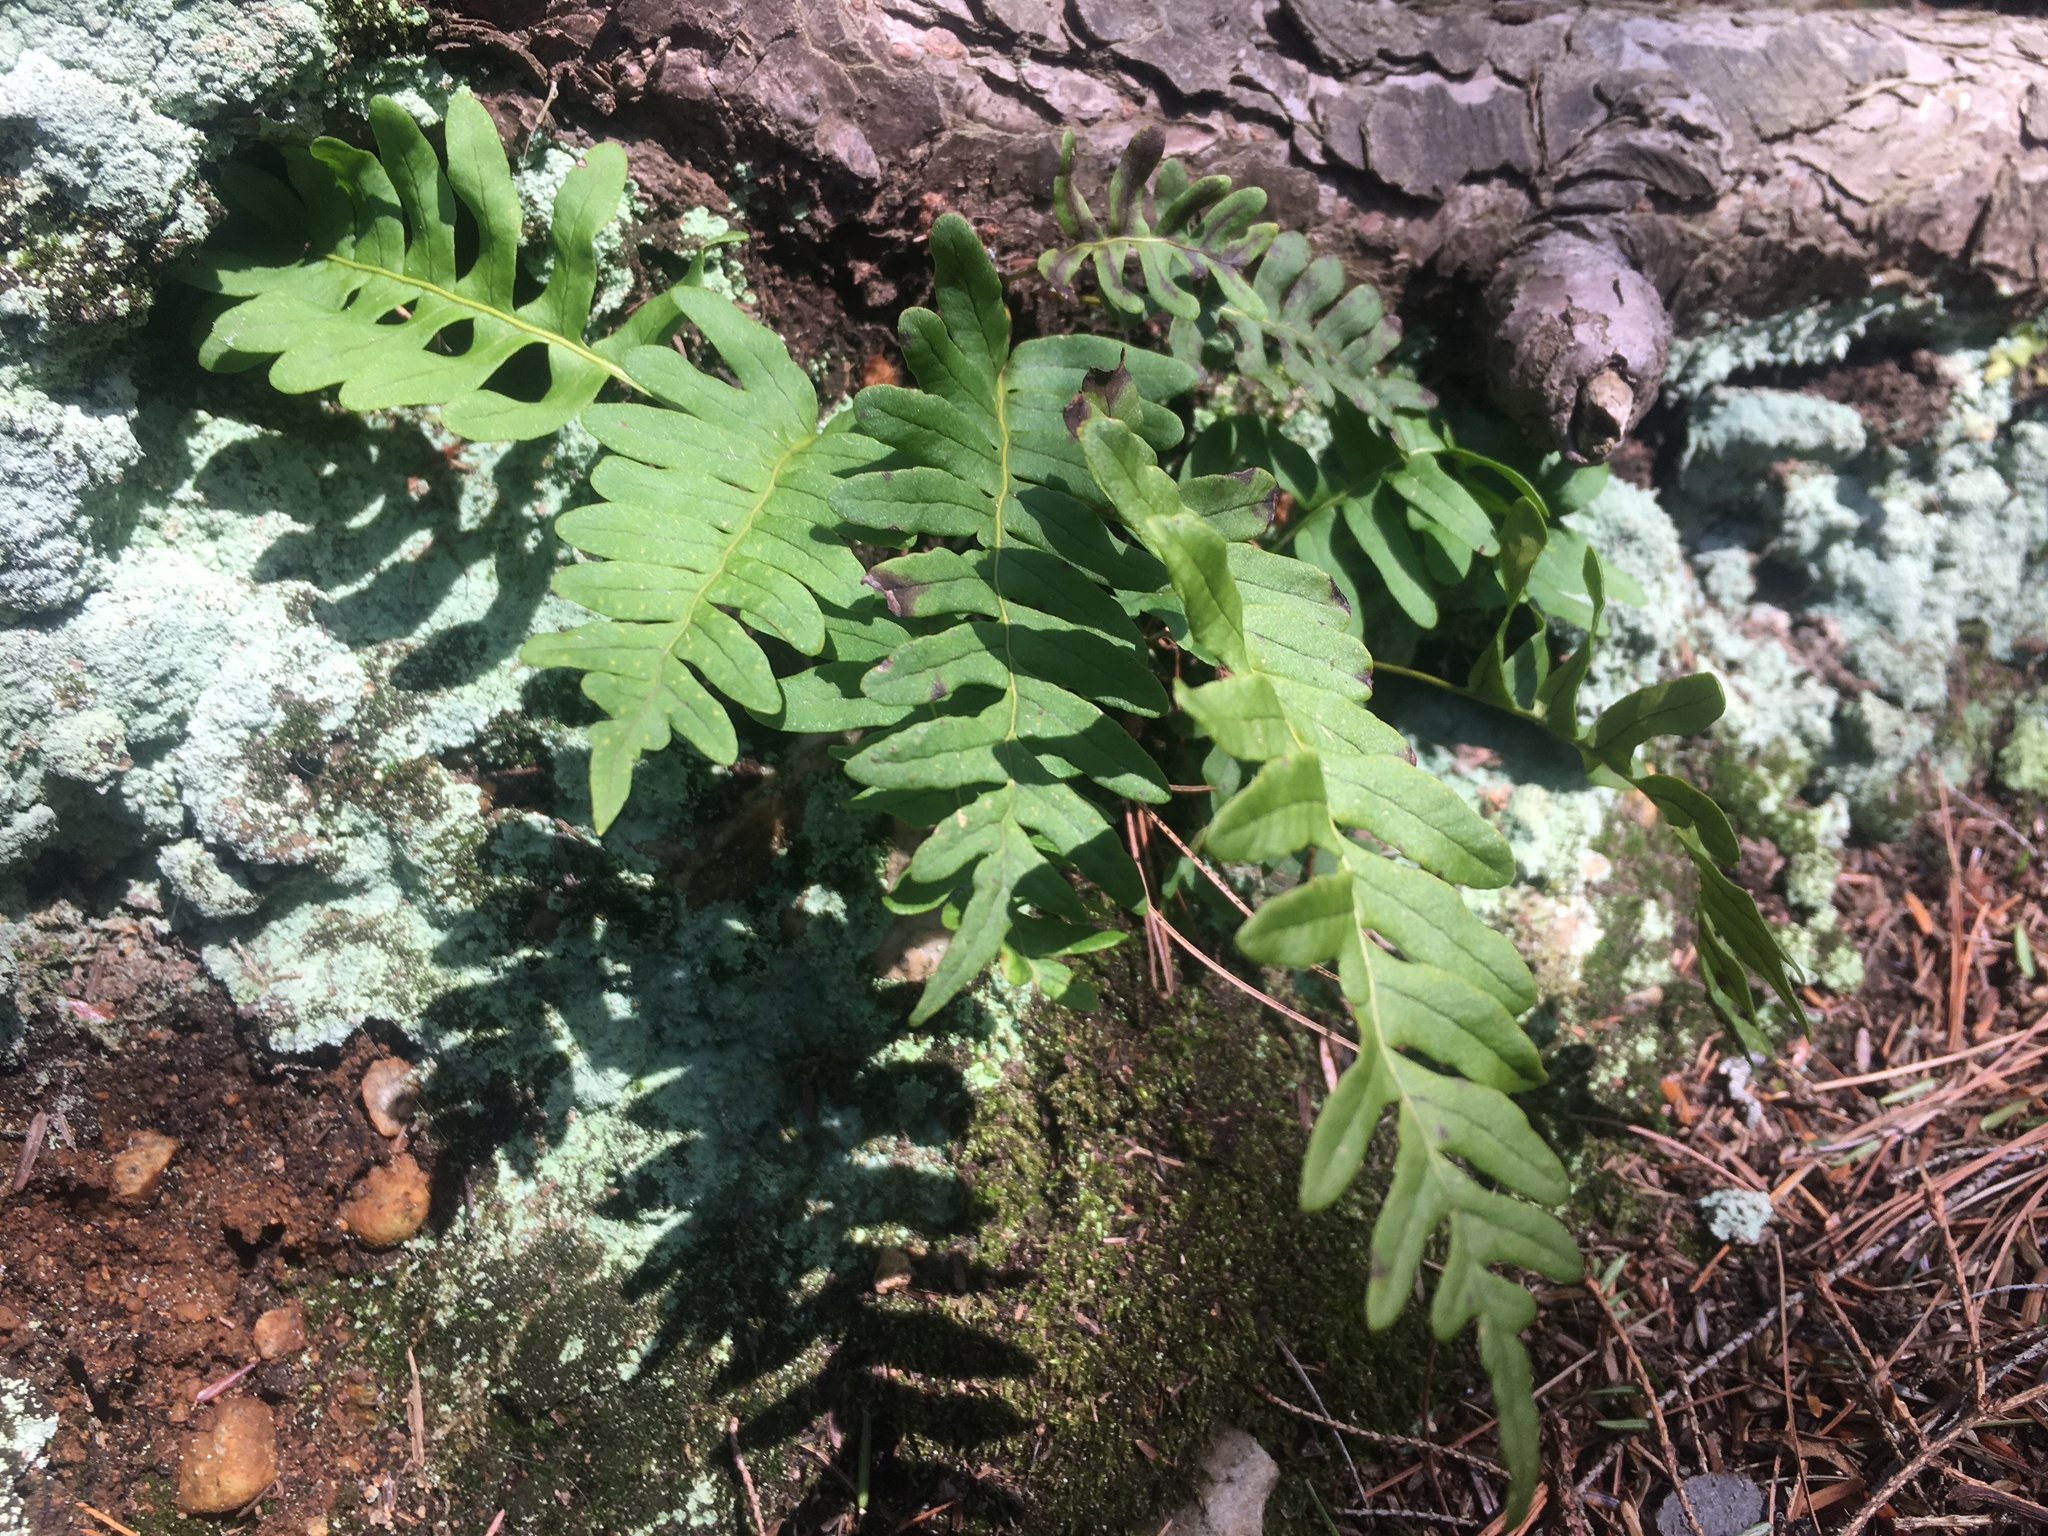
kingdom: Plantae
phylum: Tracheophyta
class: Polypodiopsida
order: Polypodiales
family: Polypodiaceae
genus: Polypodium
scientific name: Polypodium virginianum
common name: American wall fern
